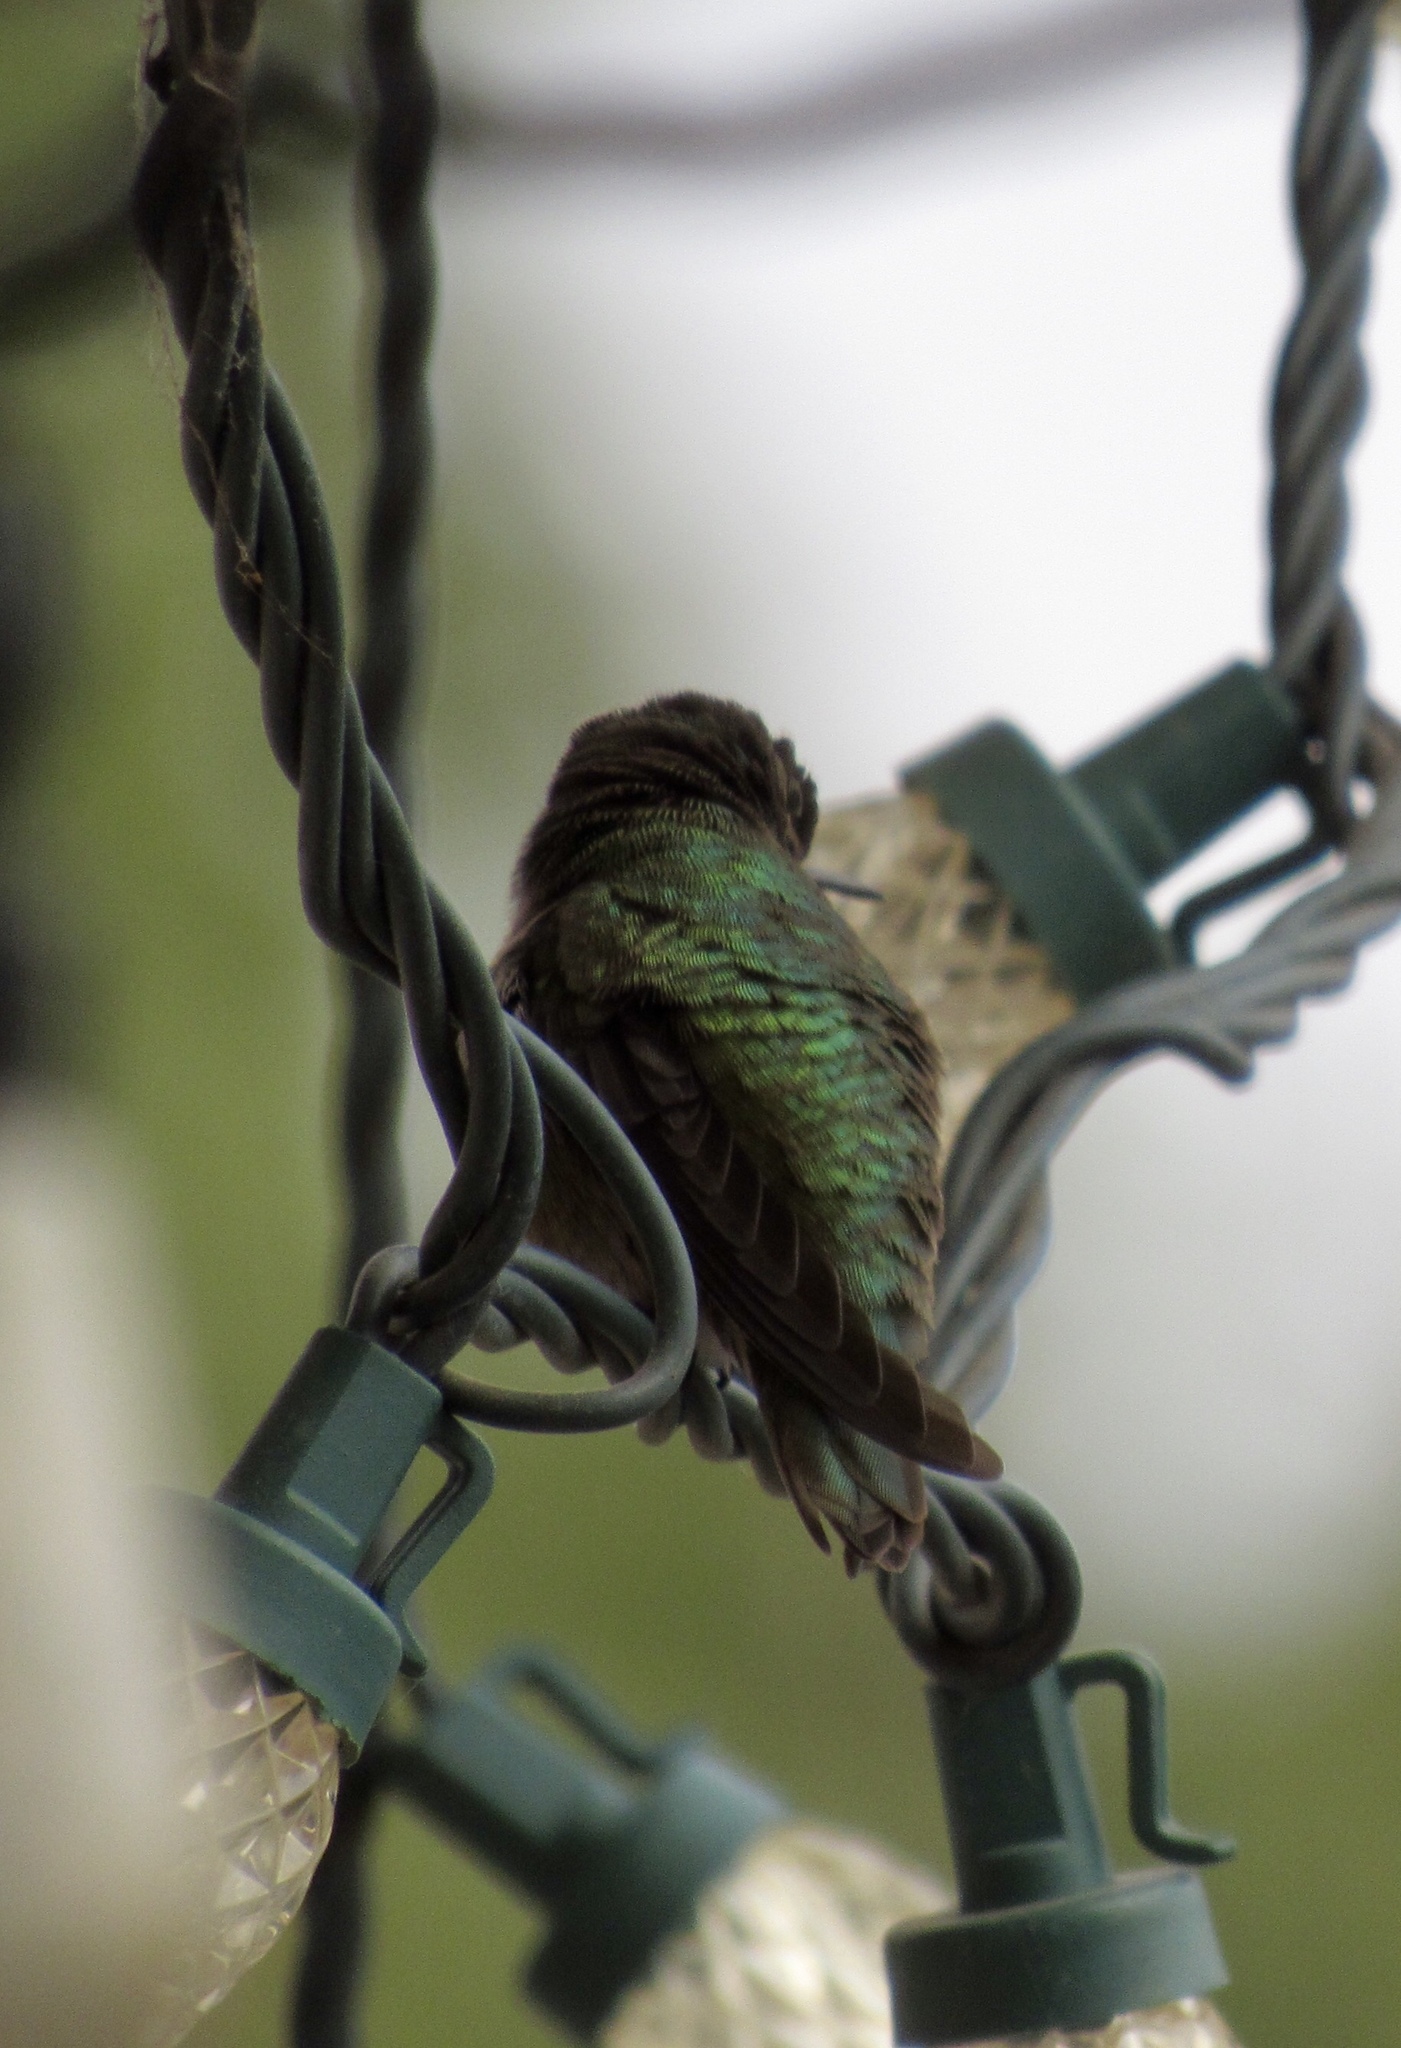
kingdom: Animalia
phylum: Chordata
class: Aves
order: Apodiformes
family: Trochilidae
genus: Calypte
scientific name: Calypte costae
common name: Costa's hummingbird
